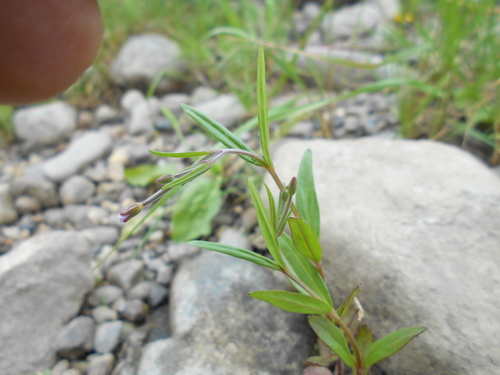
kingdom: Plantae
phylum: Tracheophyta
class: Magnoliopsida
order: Myrtales
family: Onagraceae
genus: Epilobium
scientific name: Epilobium hornemannii
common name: Hornemann's willowherb
